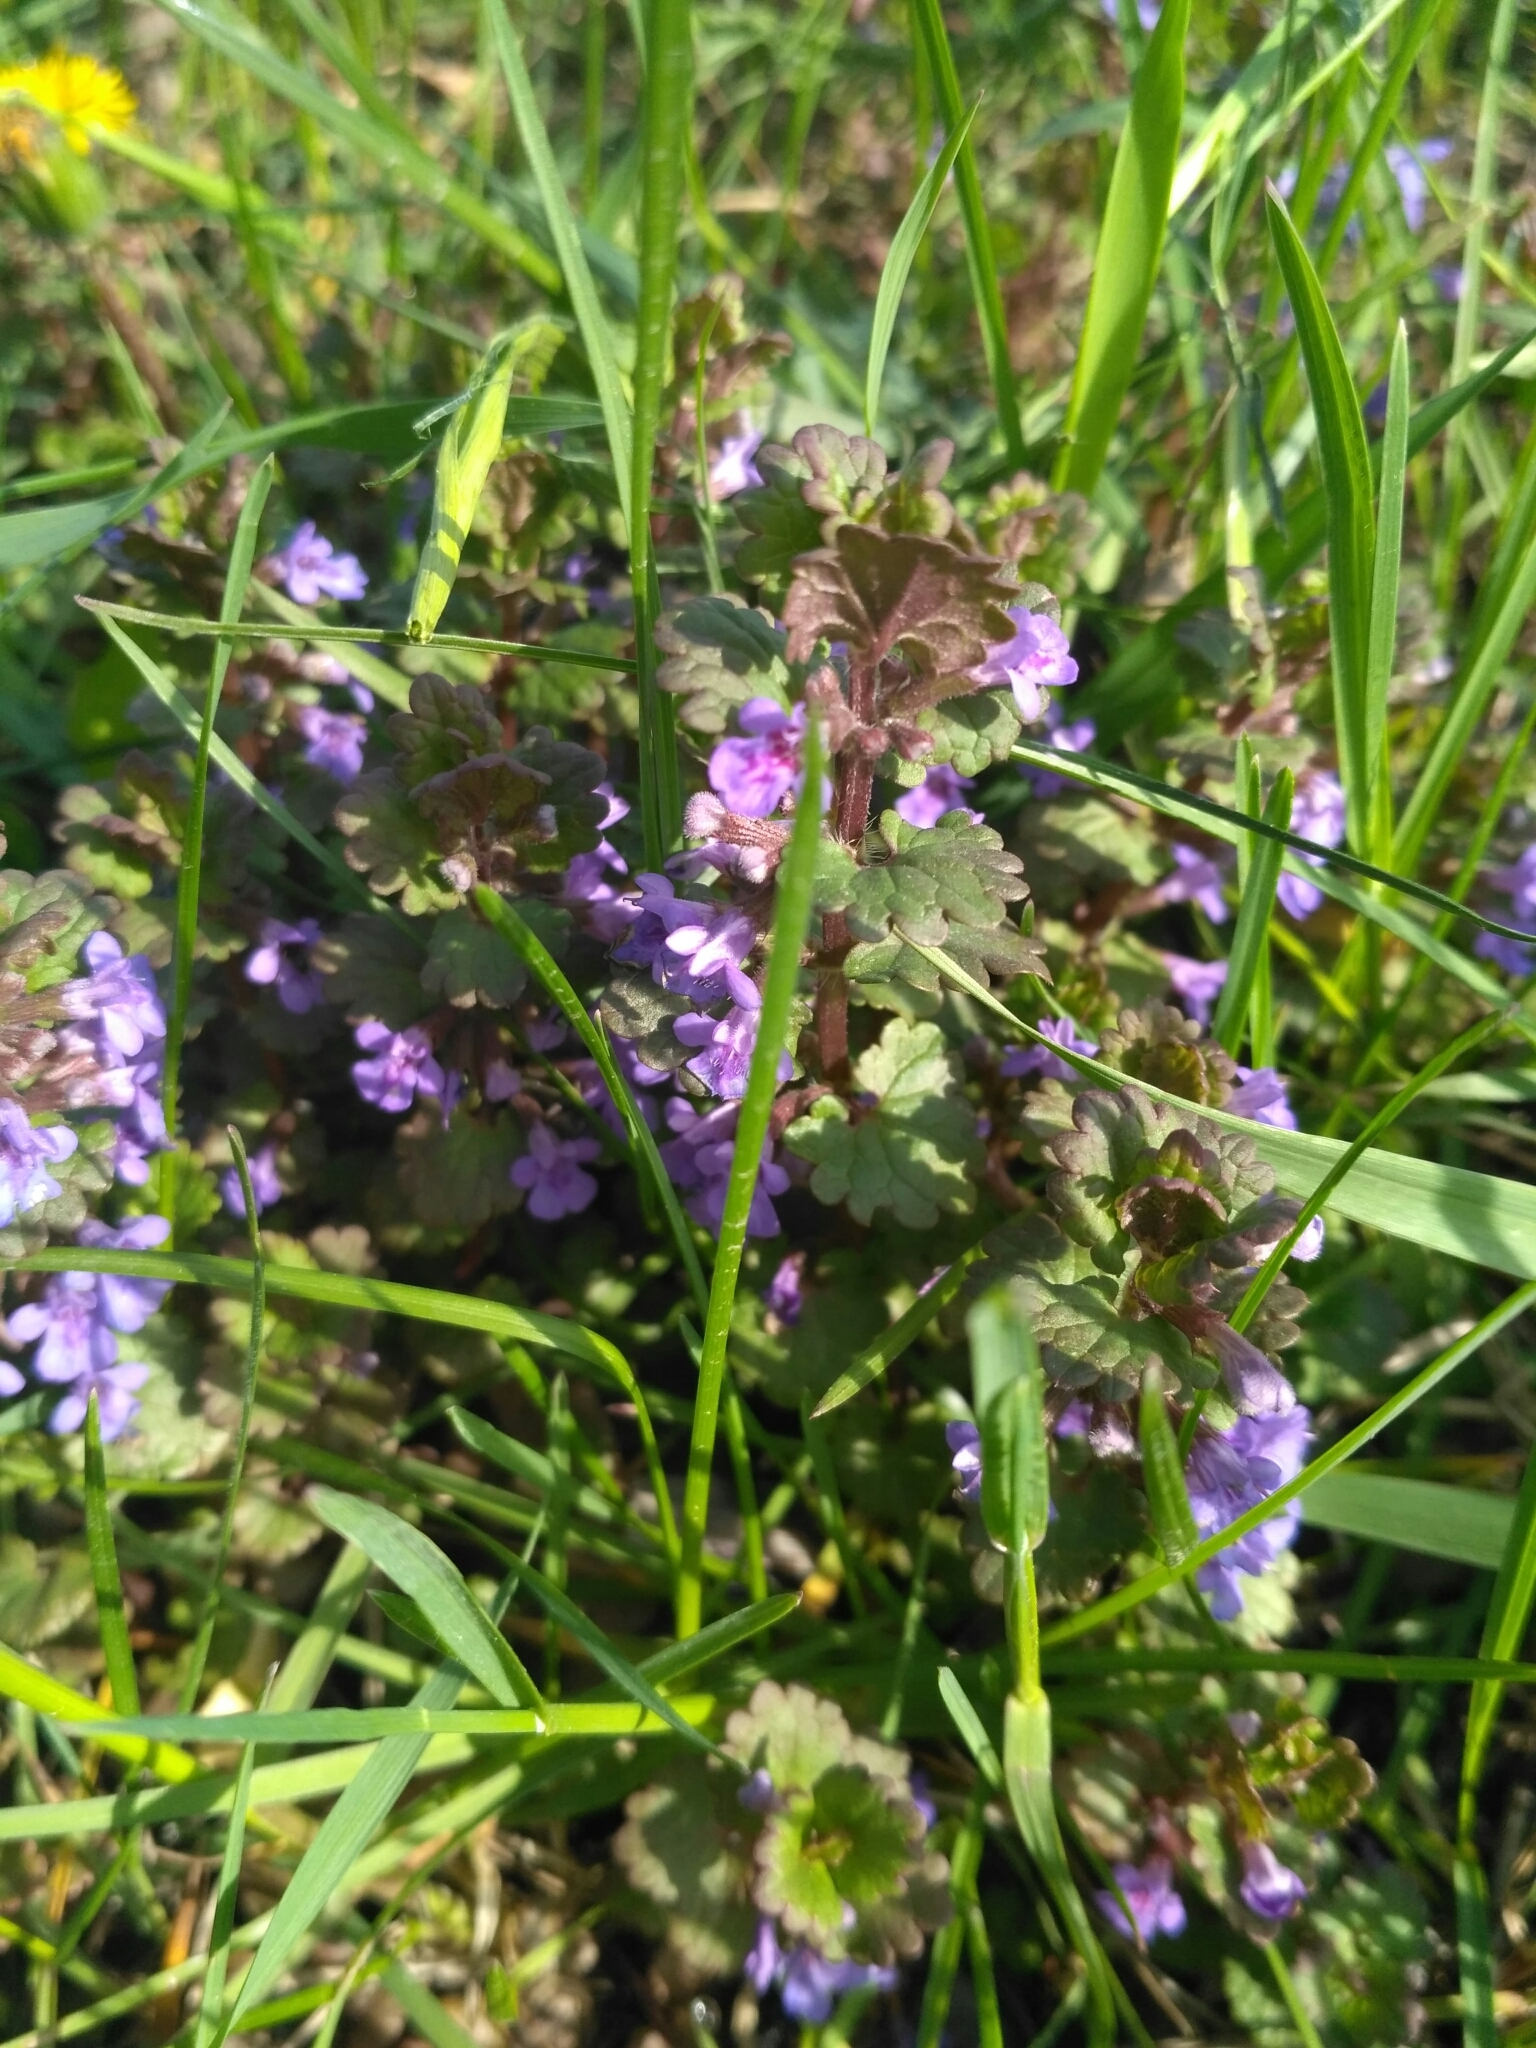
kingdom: Plantae
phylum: Tracheophyta
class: Magnoliopsida
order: Lamiales
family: Lamiaceae
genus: Glechoma
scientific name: Glechoma hederacea
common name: Ground ivy
